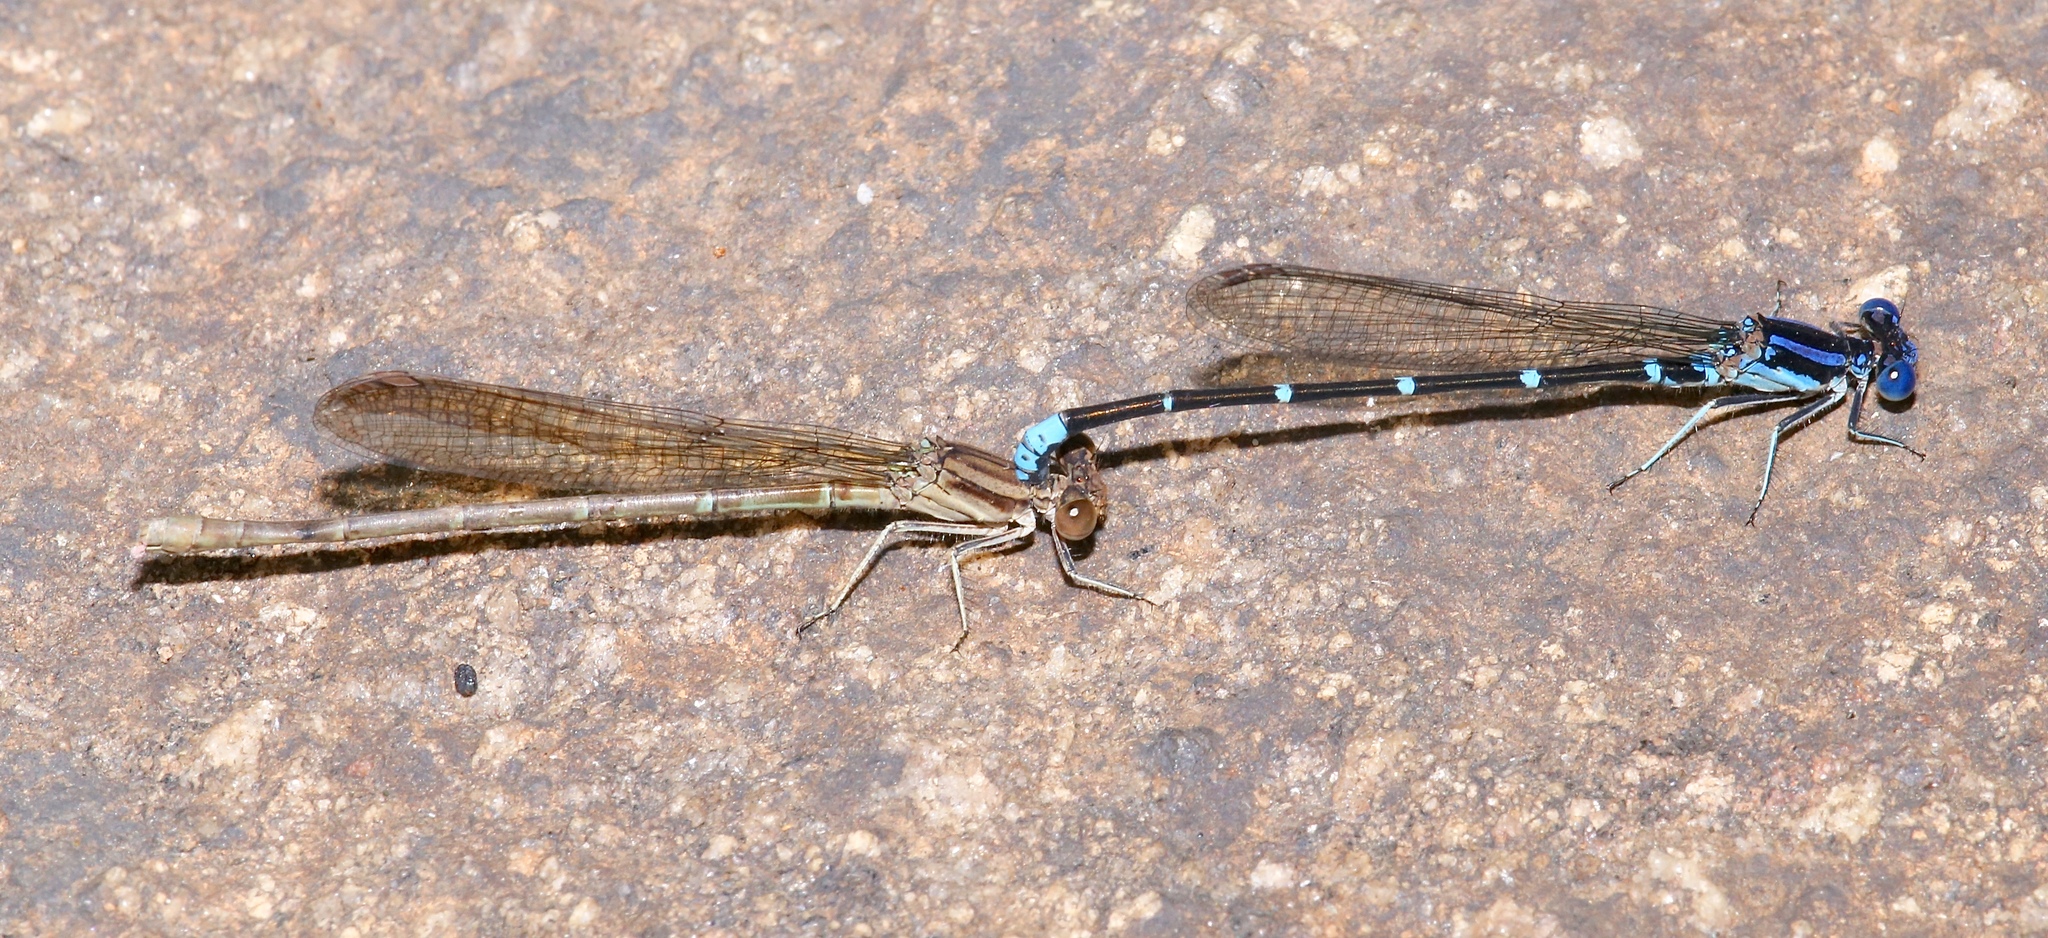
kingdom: Animalia
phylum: Arthropoda
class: Insecta
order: Odonata
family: Coenagrionidae
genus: Argia
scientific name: Argia sedula
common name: Blue-ringed dancer
